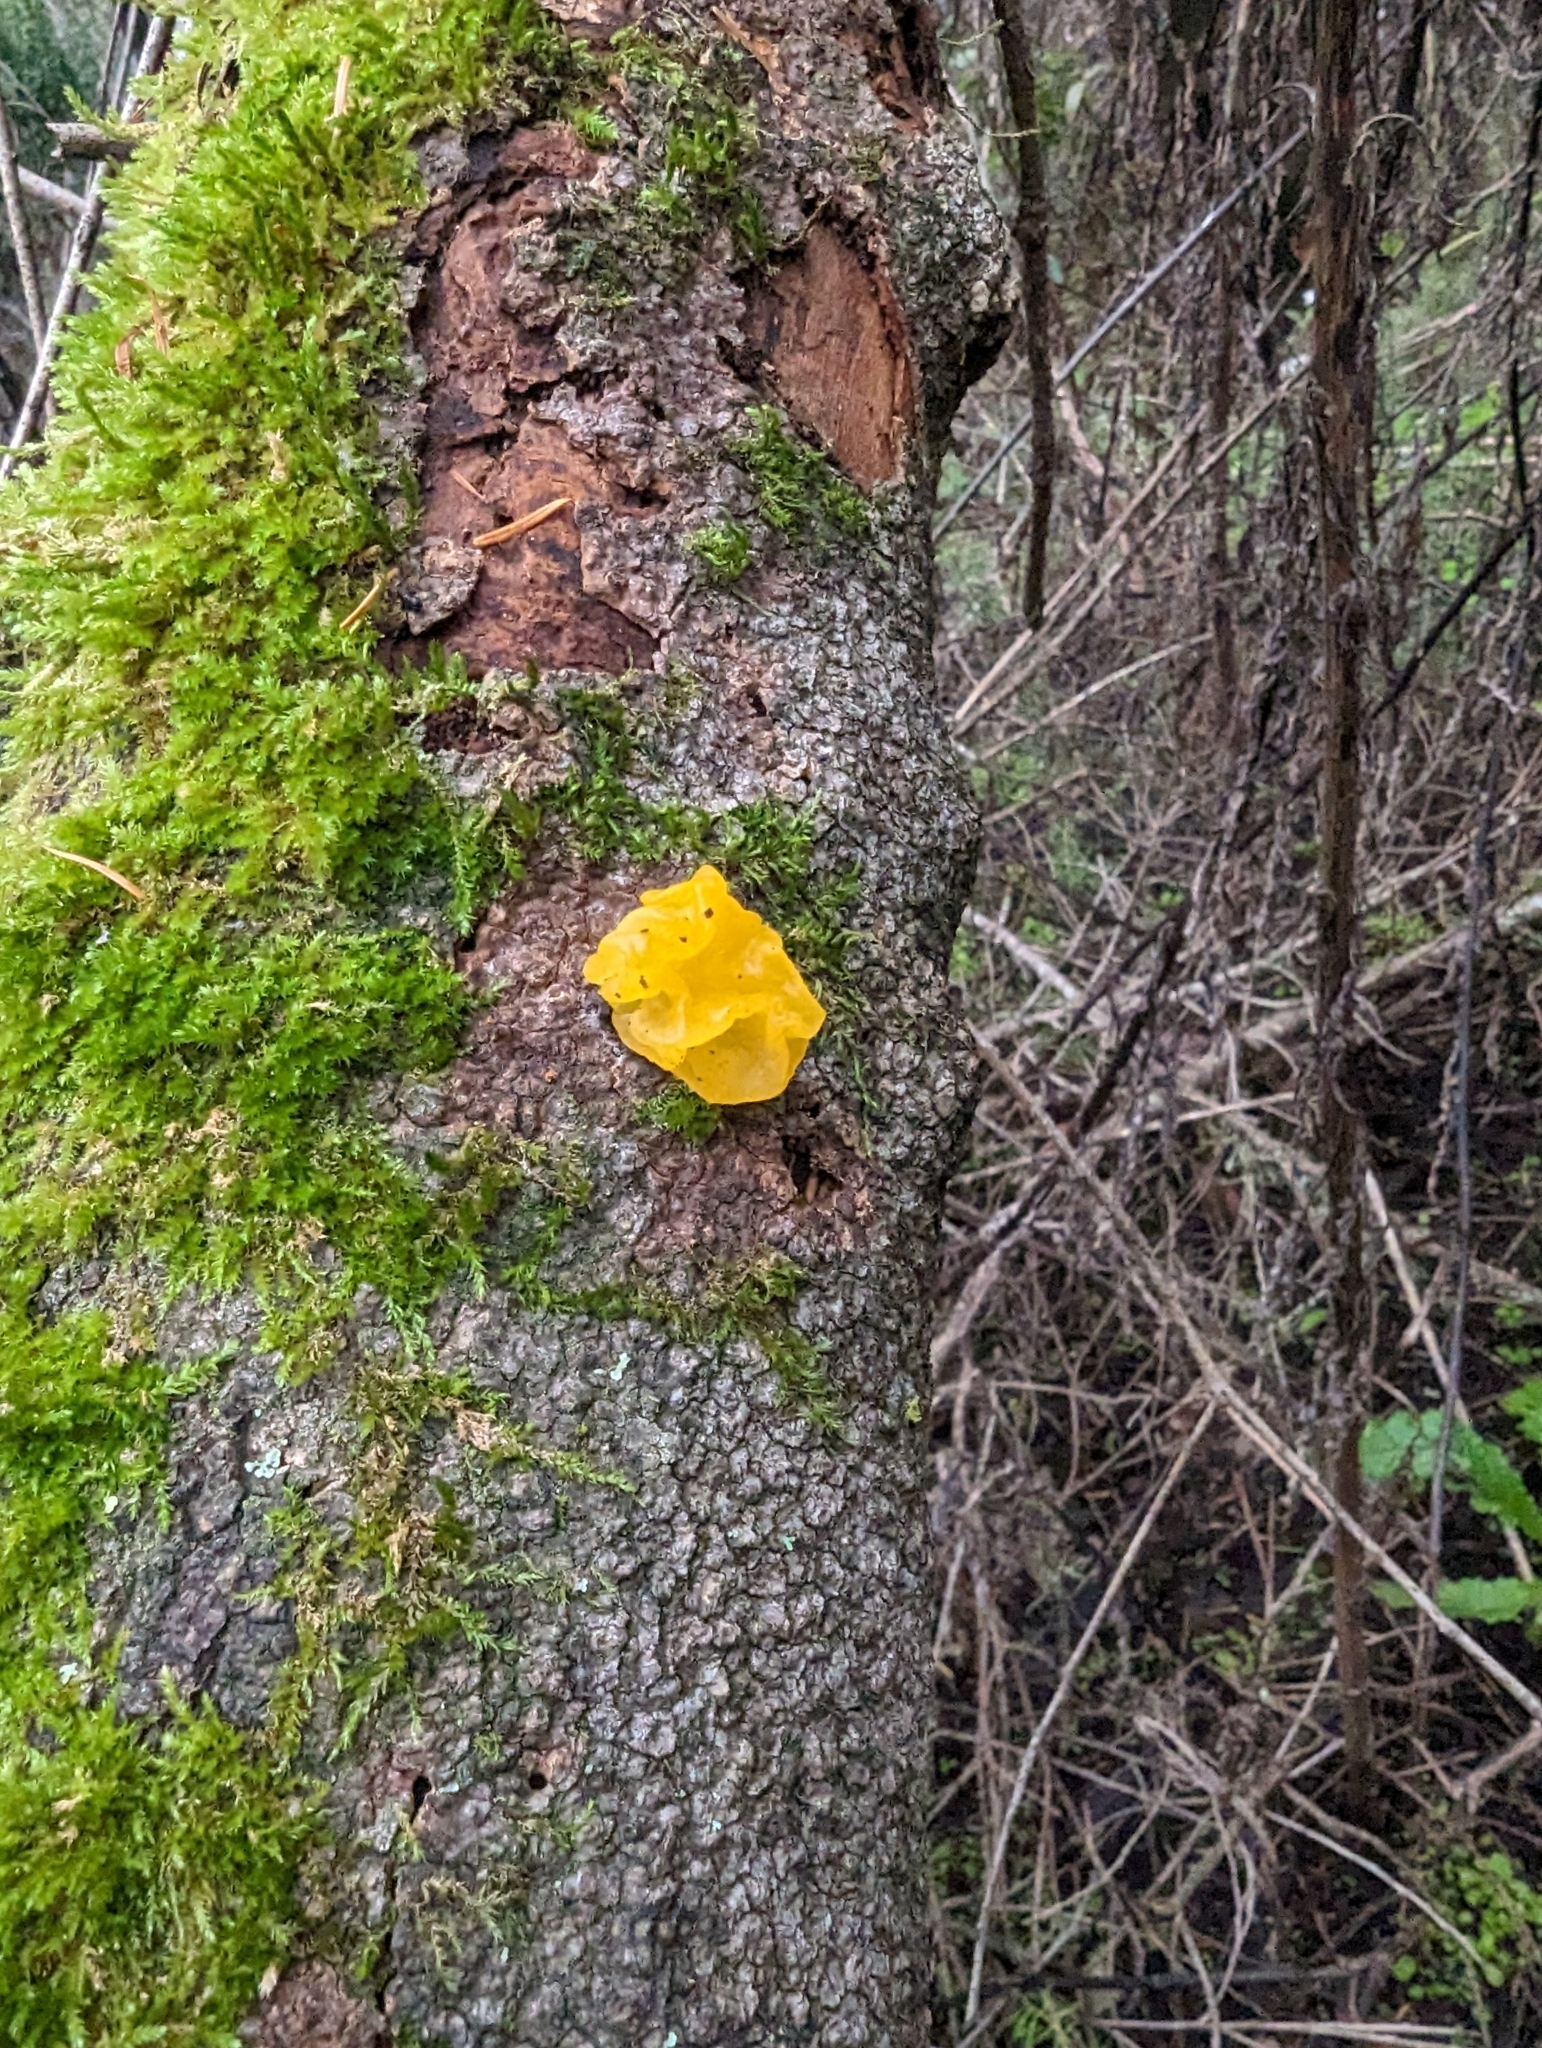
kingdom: Fungi
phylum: Basidiomycota
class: Tremellomycetes
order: Tremellales
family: Tremellaceae
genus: Tremella
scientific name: Tremella mesenterica
